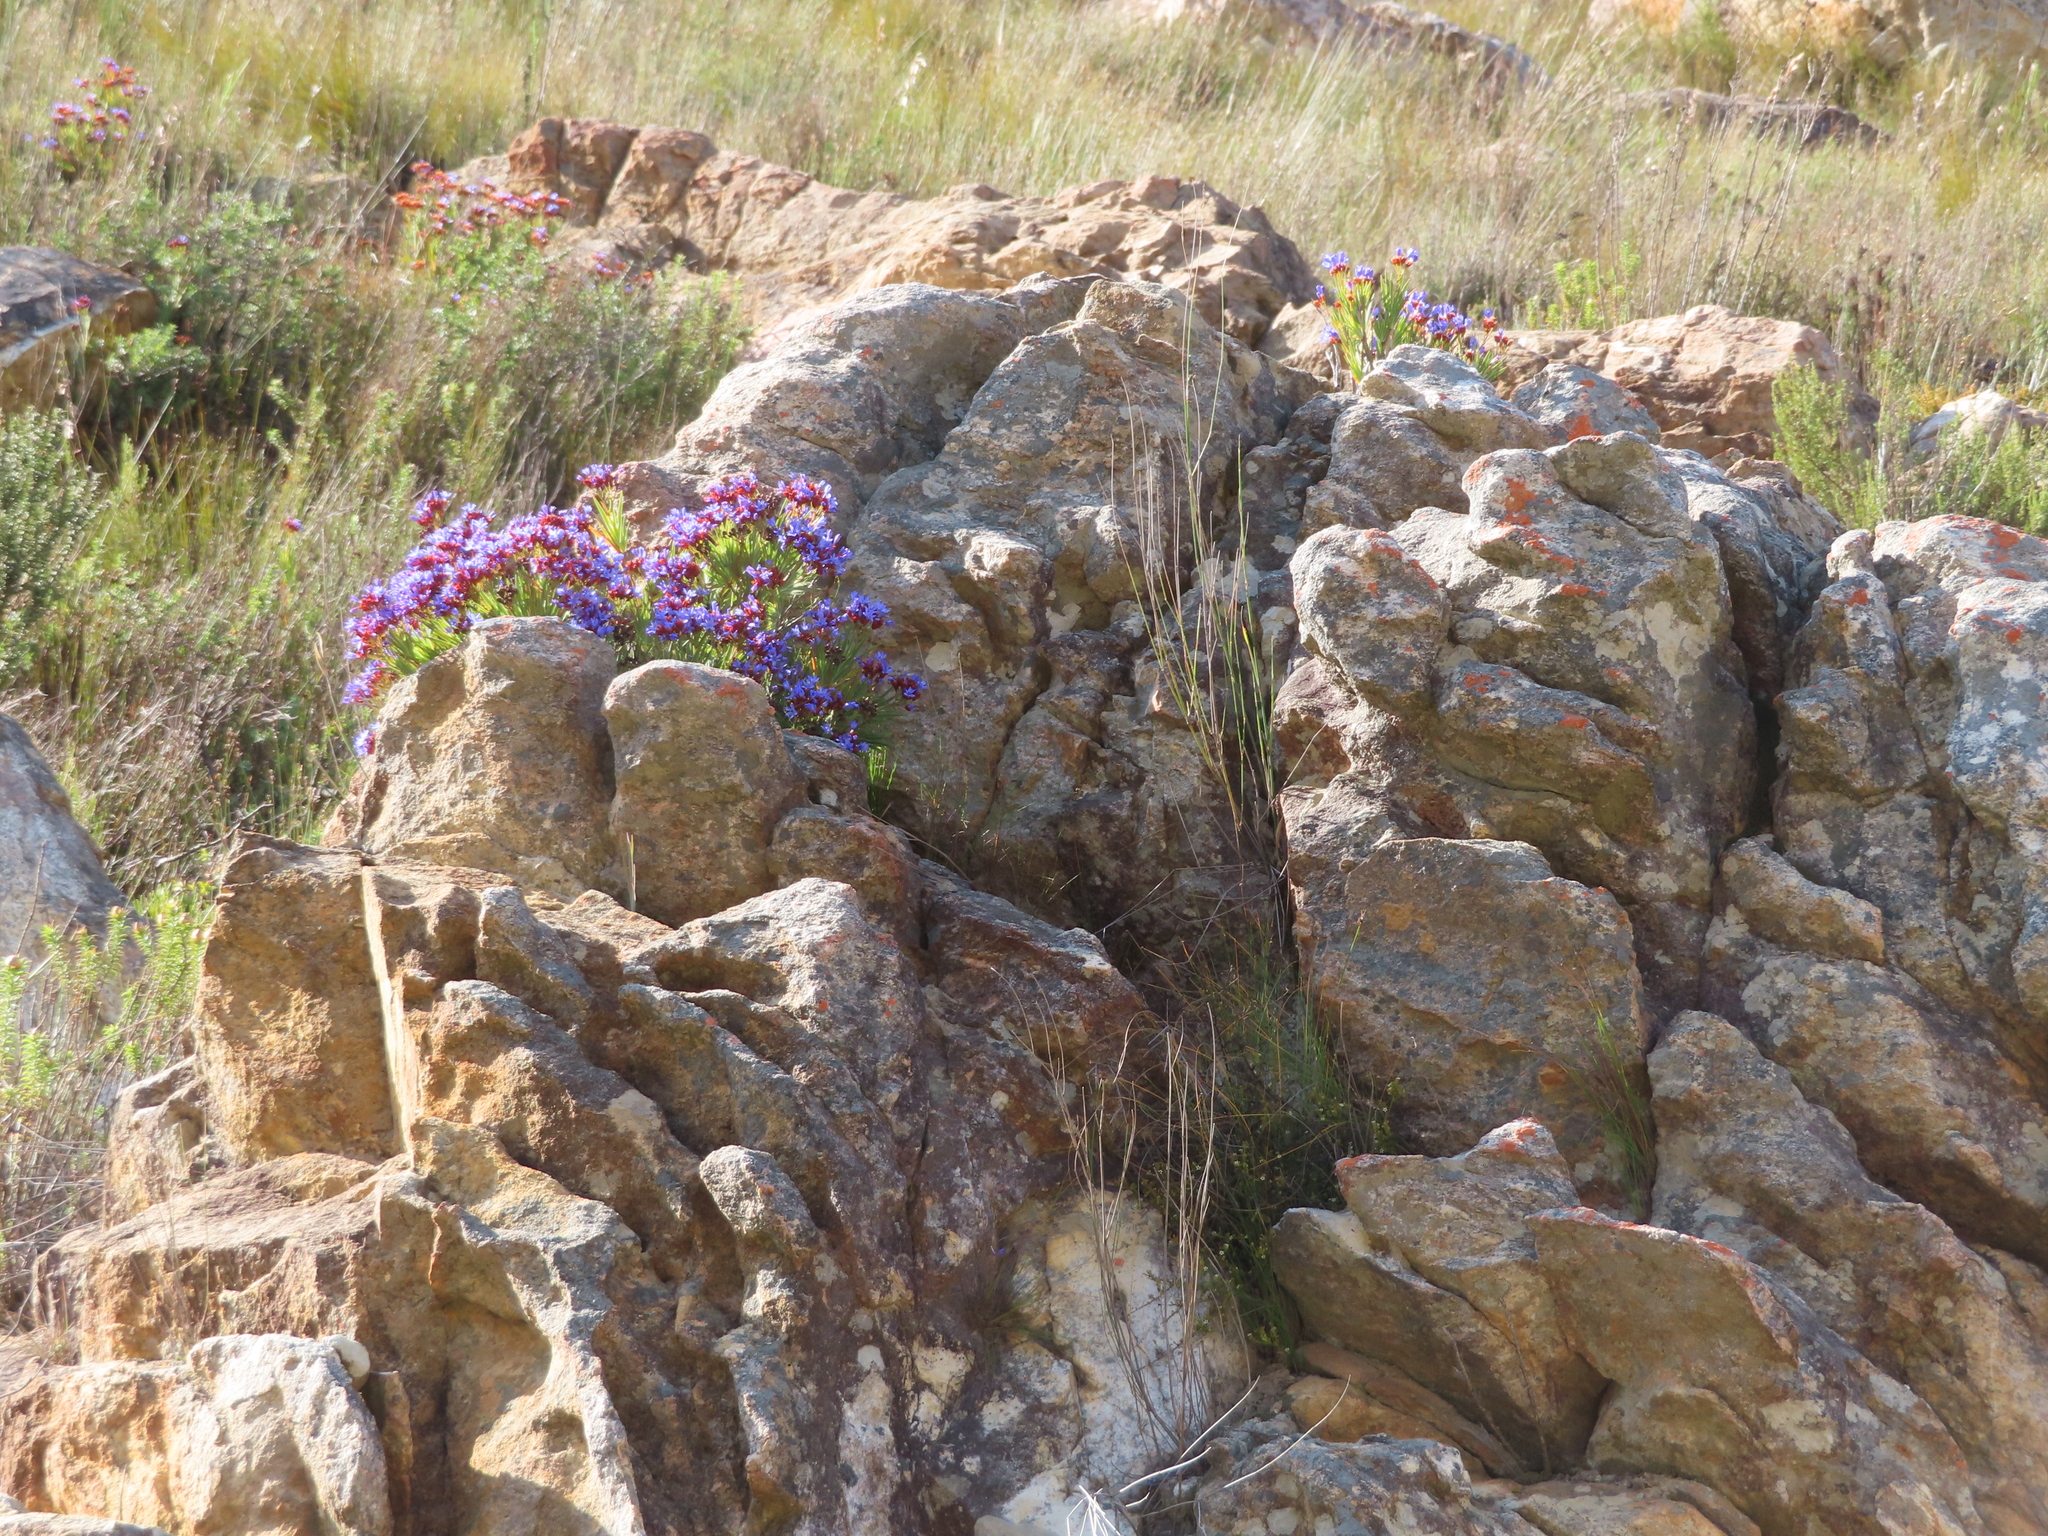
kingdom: Plantae
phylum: Tracheophyta
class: Liliopsida
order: Asparagales
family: Iridaceae
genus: Nivenia
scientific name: Nivenia binata
